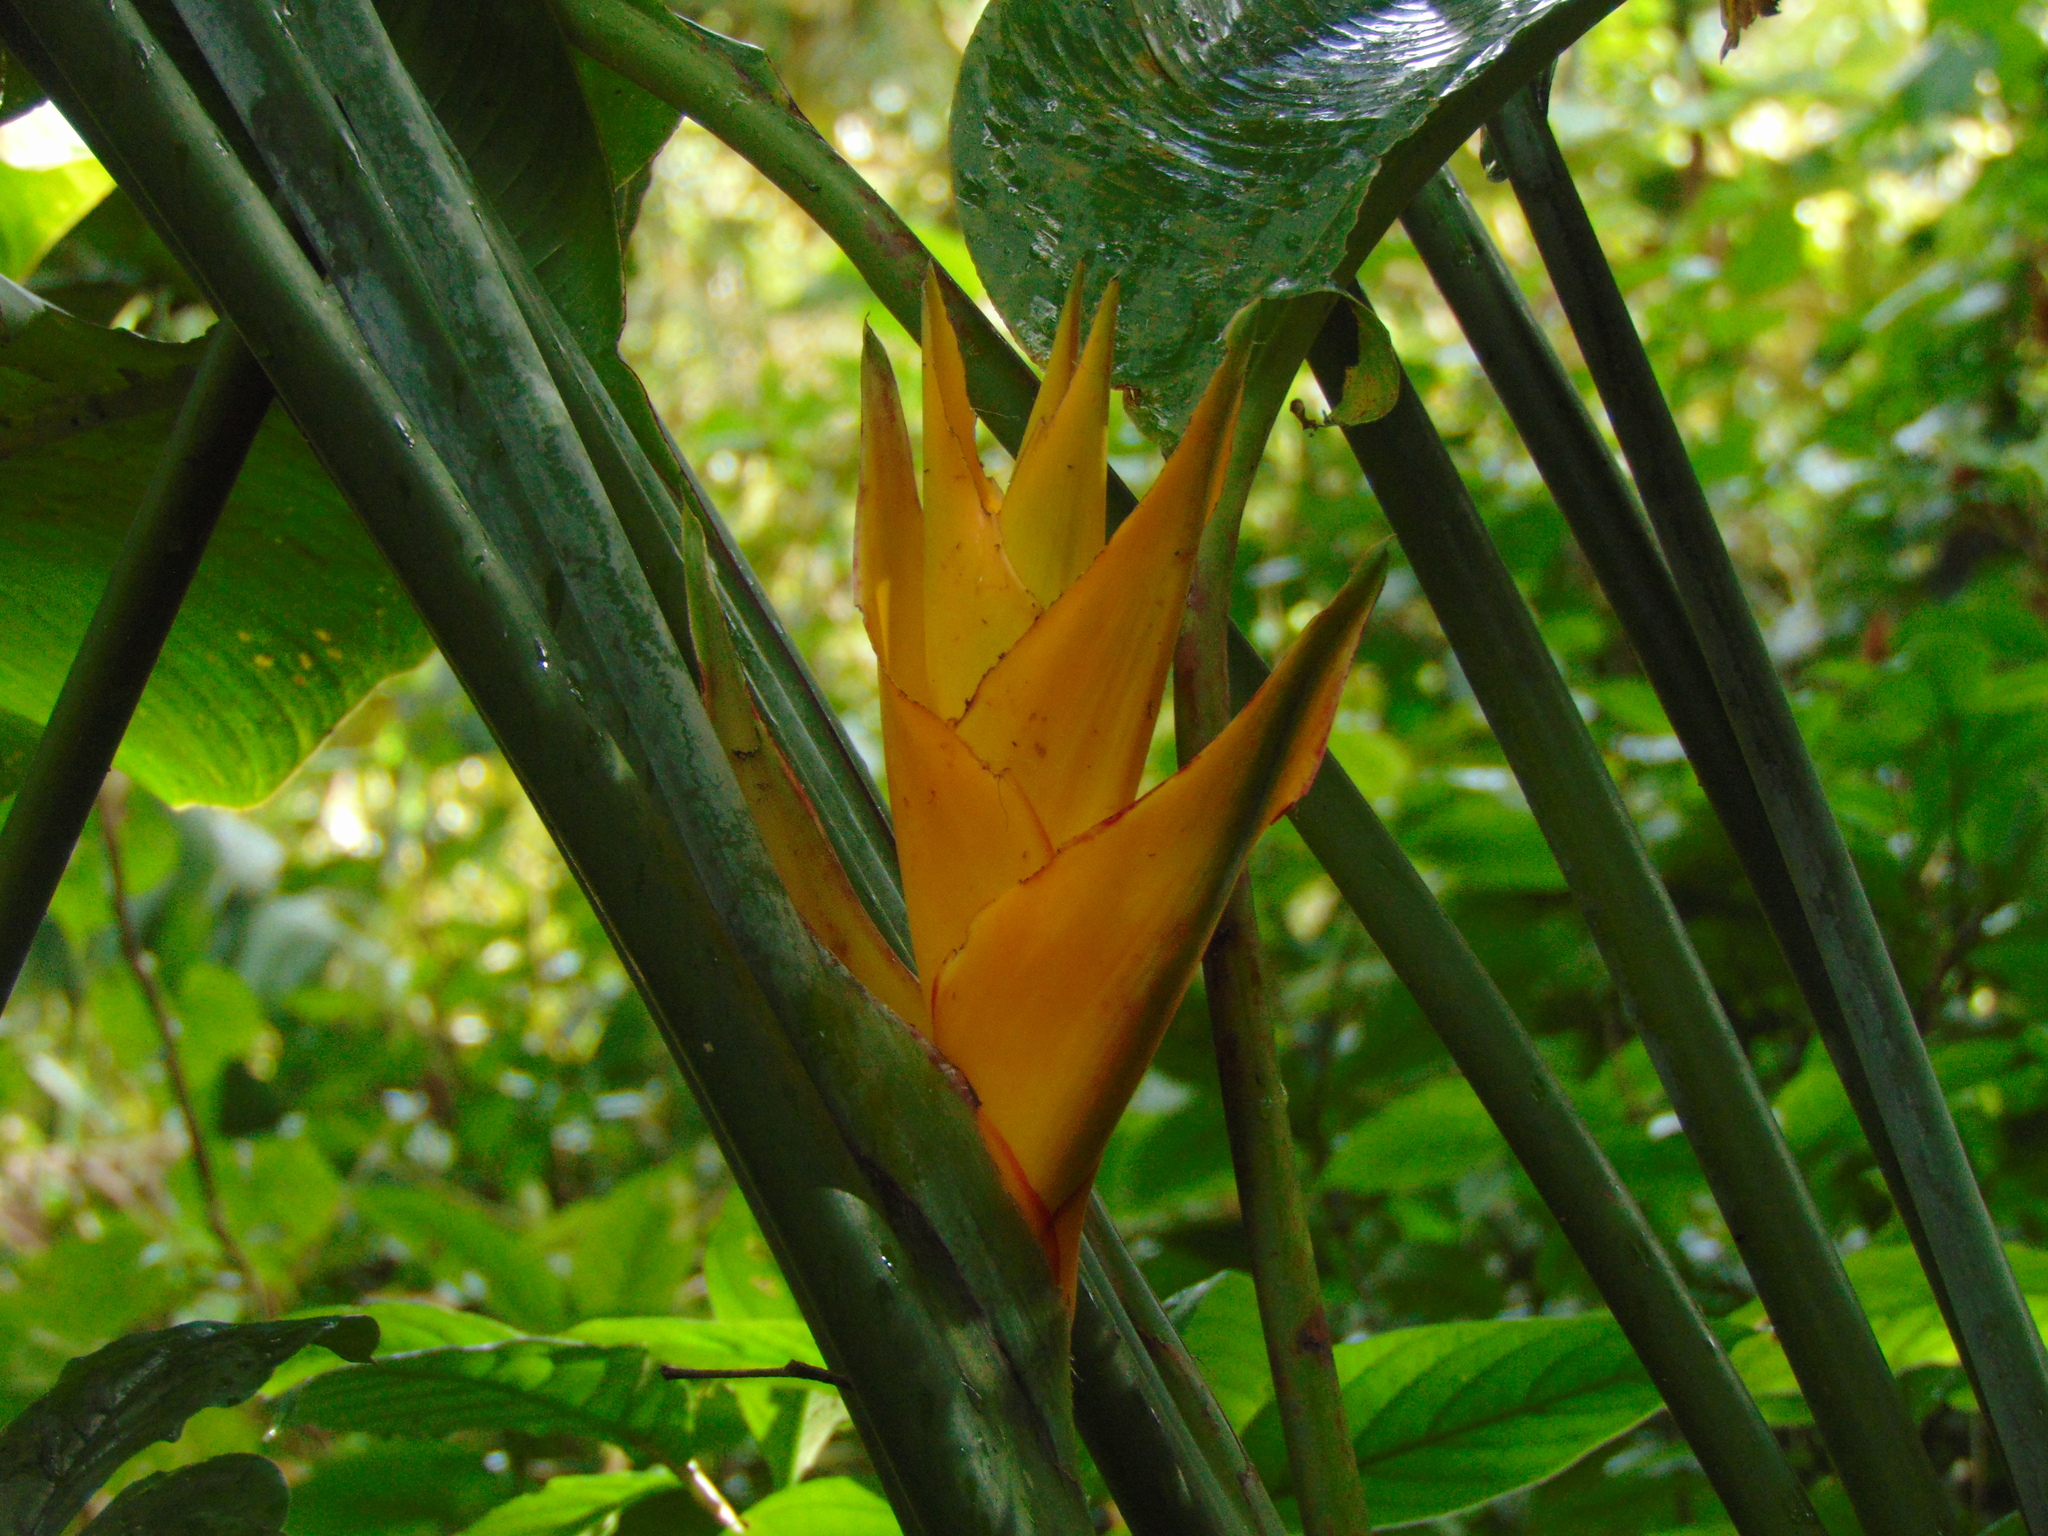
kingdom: Plantae
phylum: Tracheophyta
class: Liliopsida
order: Zingiberales
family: Heliconiaceae
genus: Heliconia
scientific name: Heliconia caribaea
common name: Wild plantain
